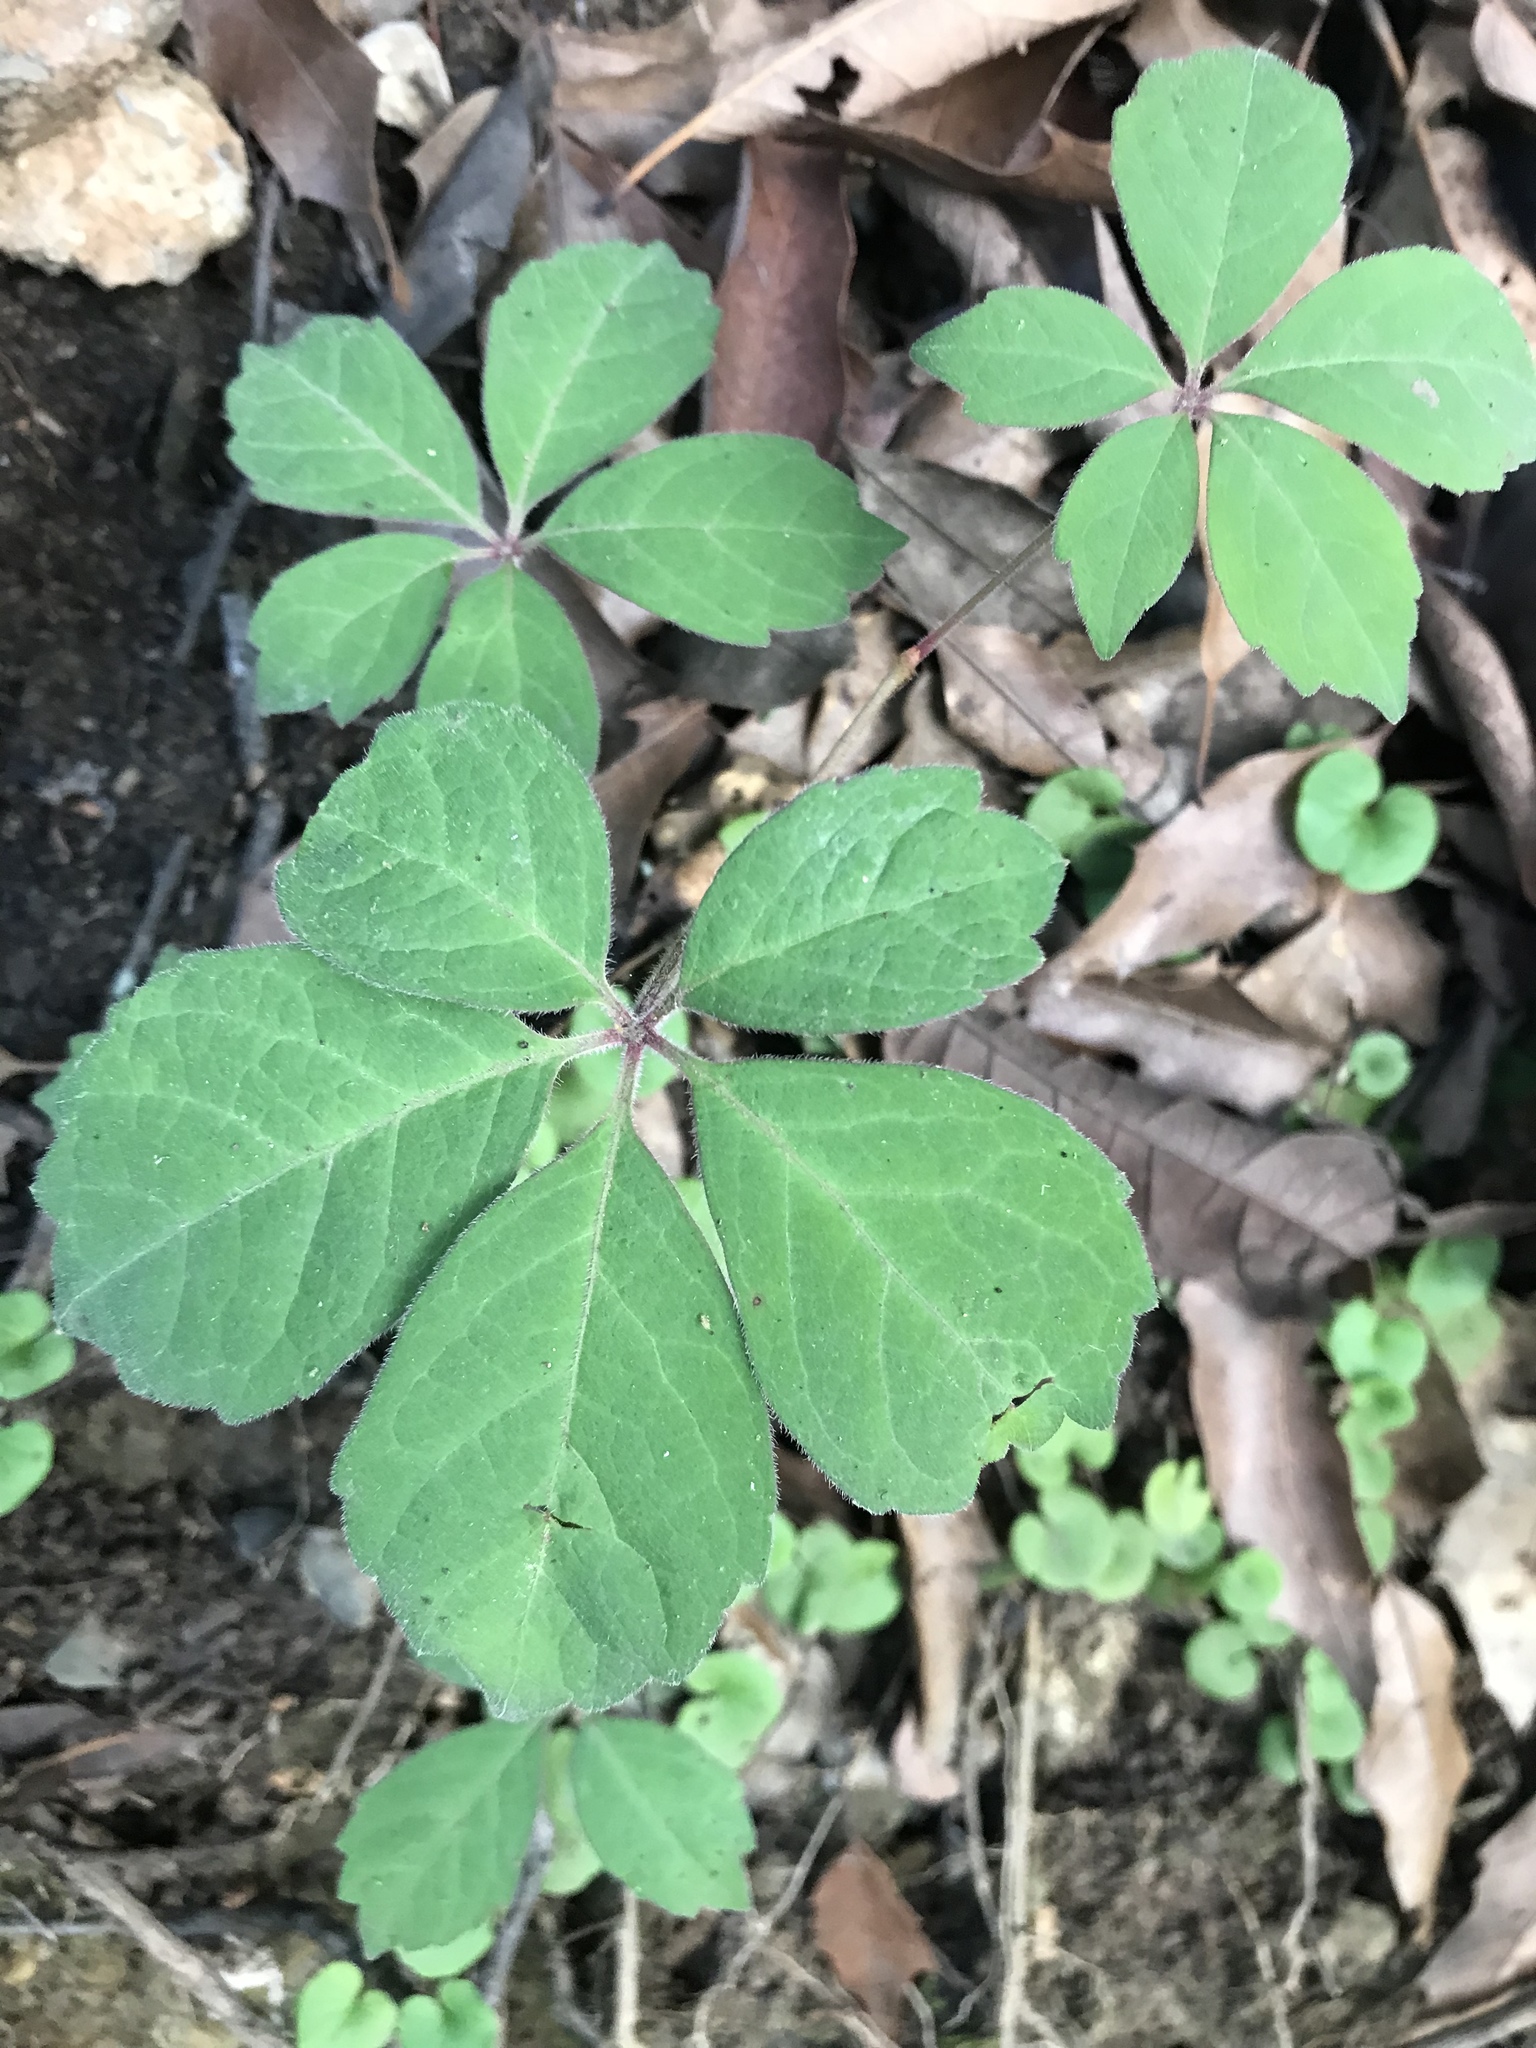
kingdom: Plantae
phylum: Tracheophyta
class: Magnoliopsida
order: Vitales
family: Vitaceae
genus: Parthenocissus
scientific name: Parthenocissus quinquefolia
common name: Virginia-creeper
